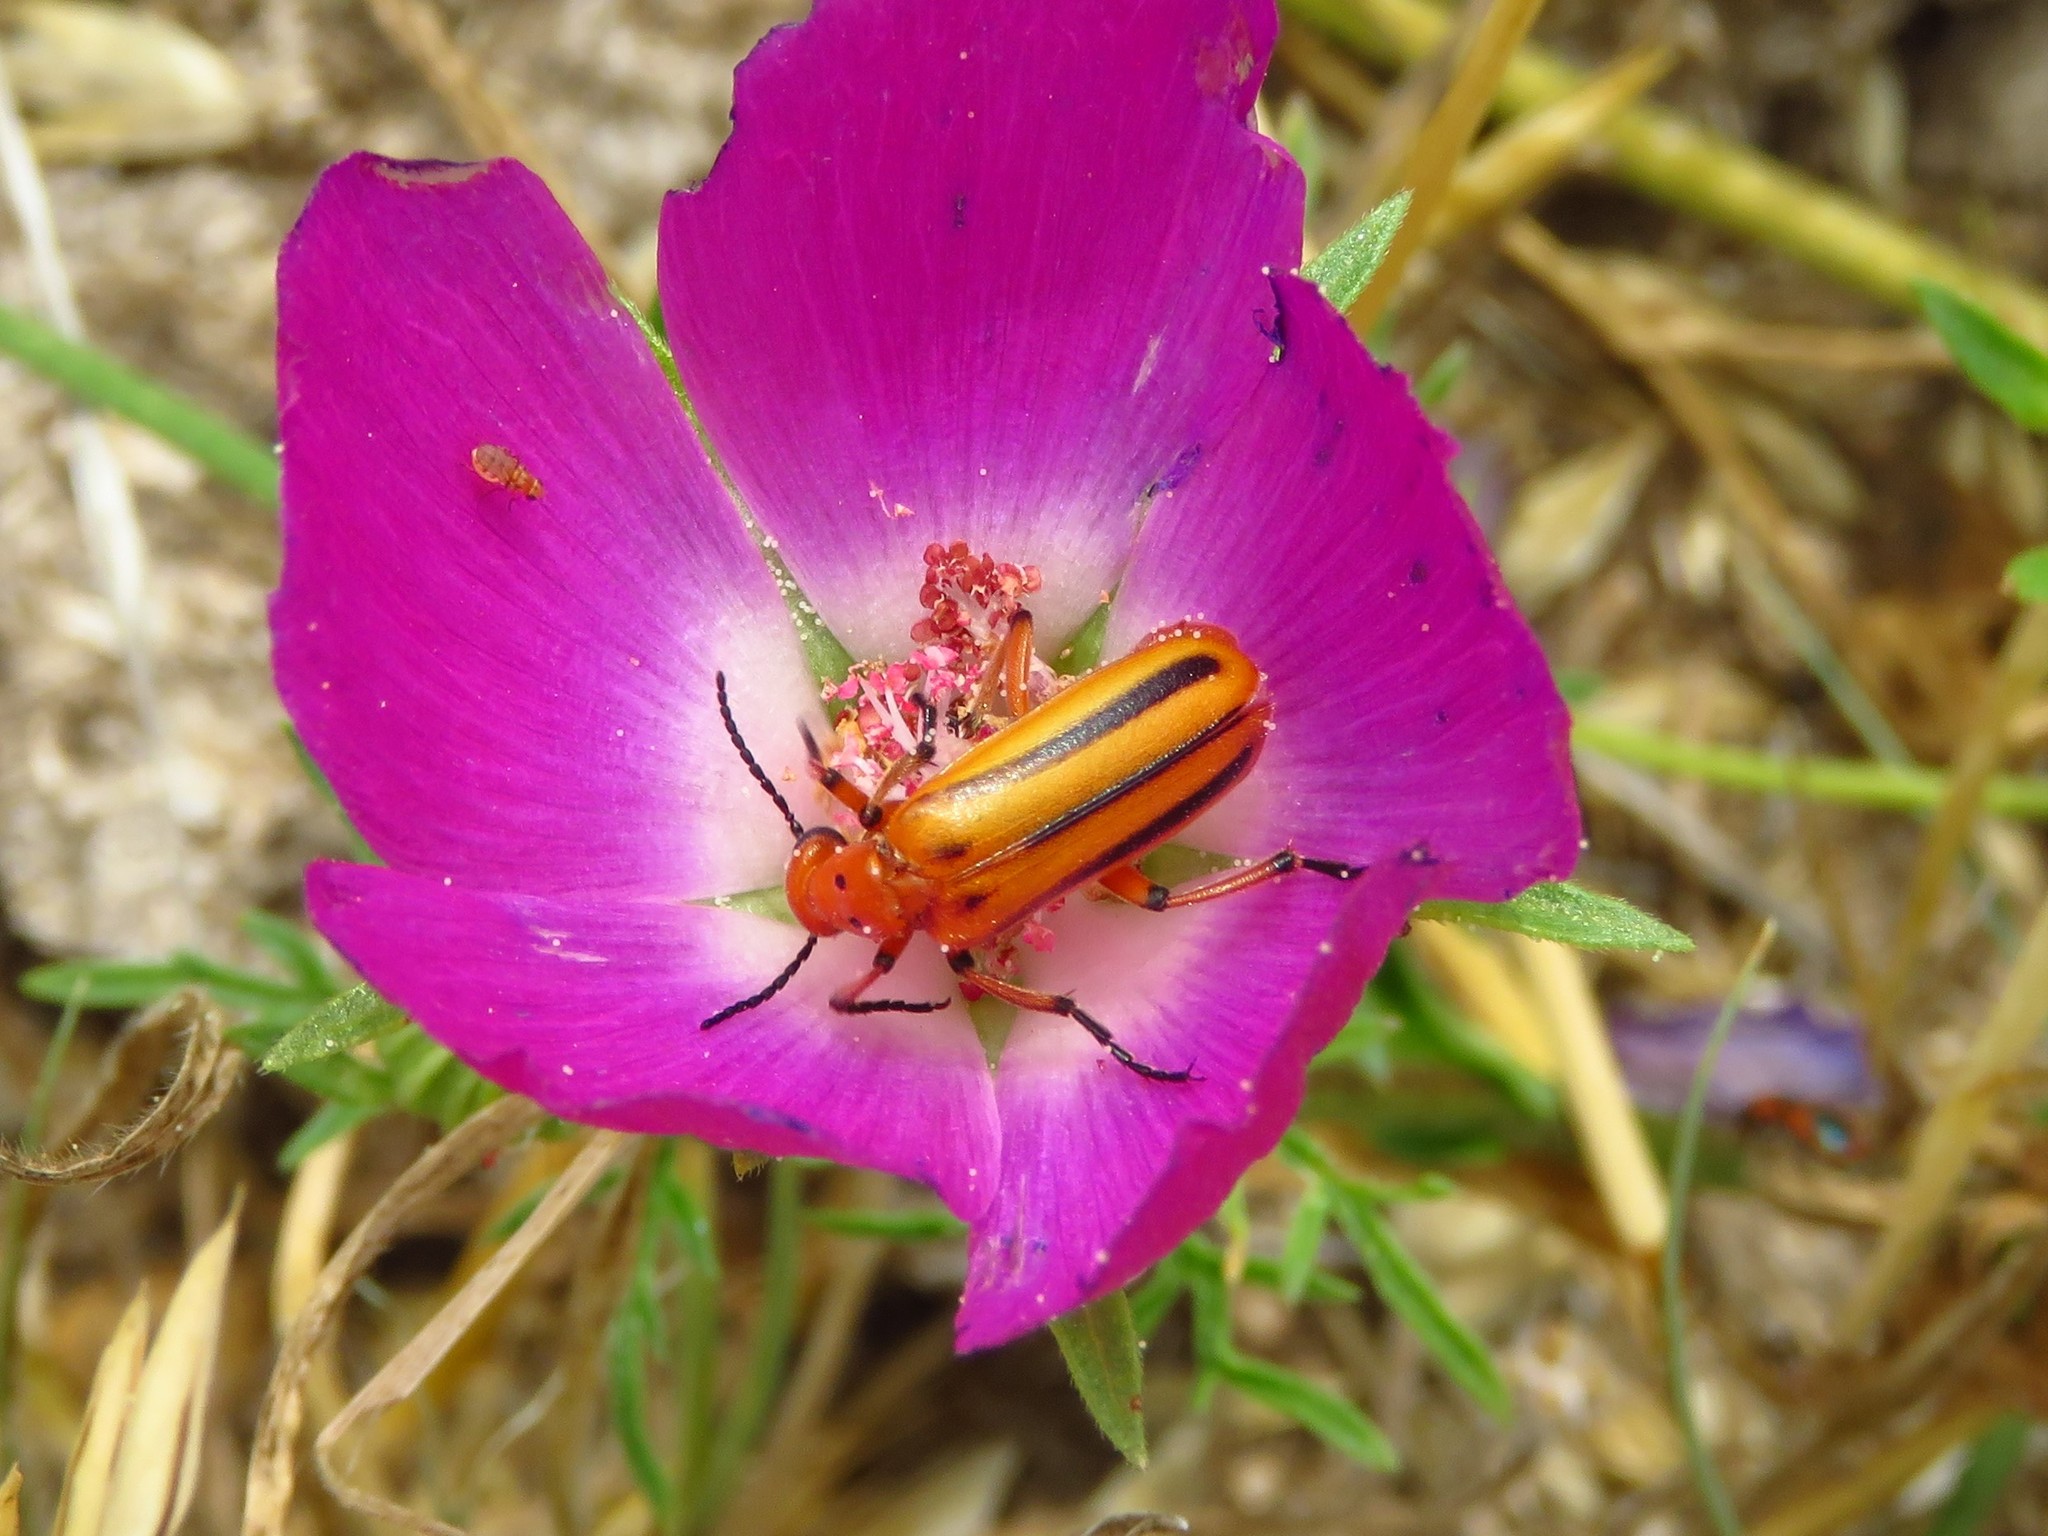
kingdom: Animalia
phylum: Arthropoda
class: Insecta
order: Coleoptera
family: Meloidae
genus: Pyrota
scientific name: Pyrota discoidea
